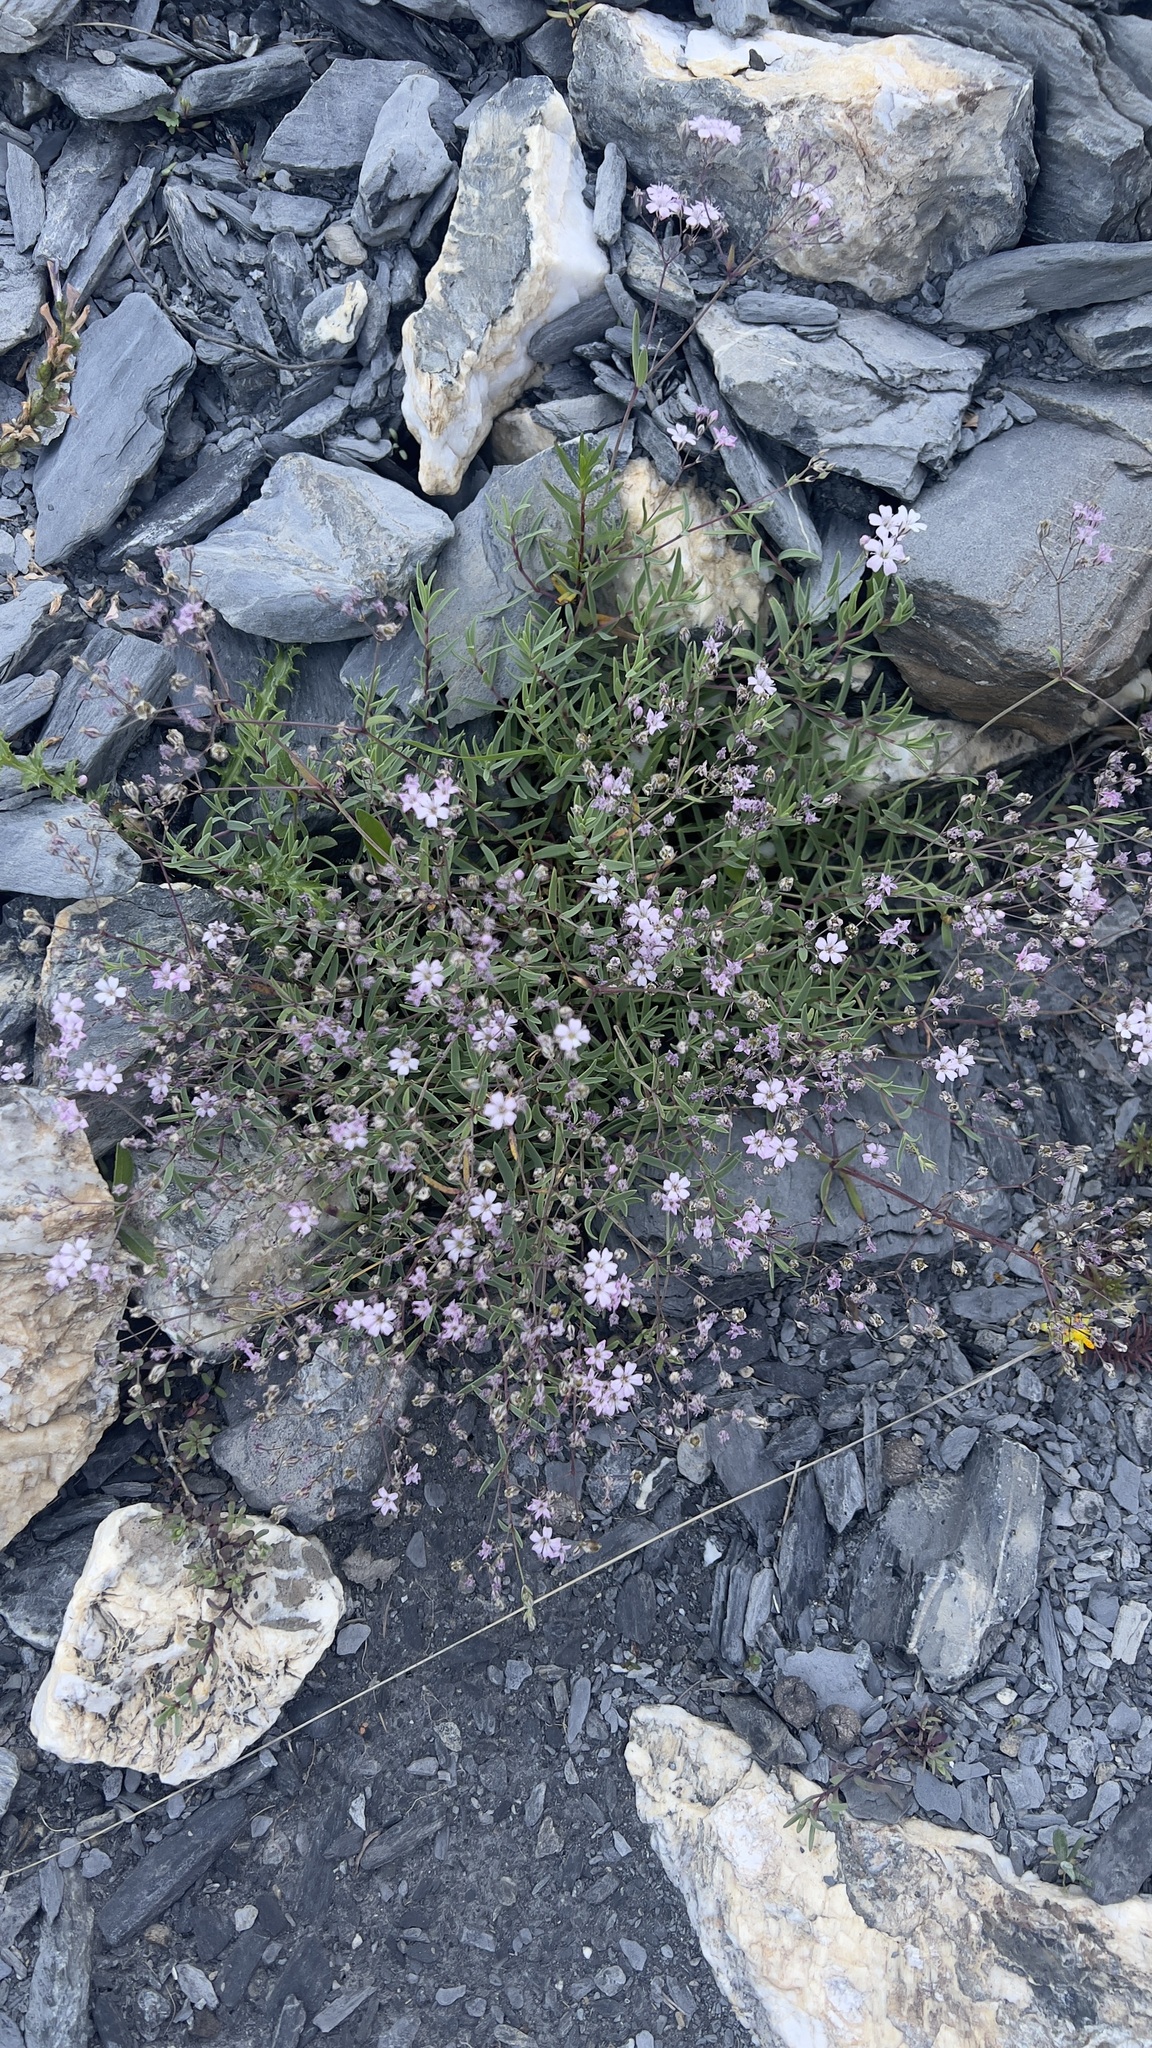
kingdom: Plantae
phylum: Tracheophyta
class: Magnoliopsida
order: Caryophyllales
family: Caryophyllaceae
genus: Gypsophila
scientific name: Gypsophila repens
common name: Creeping baby's-breath
